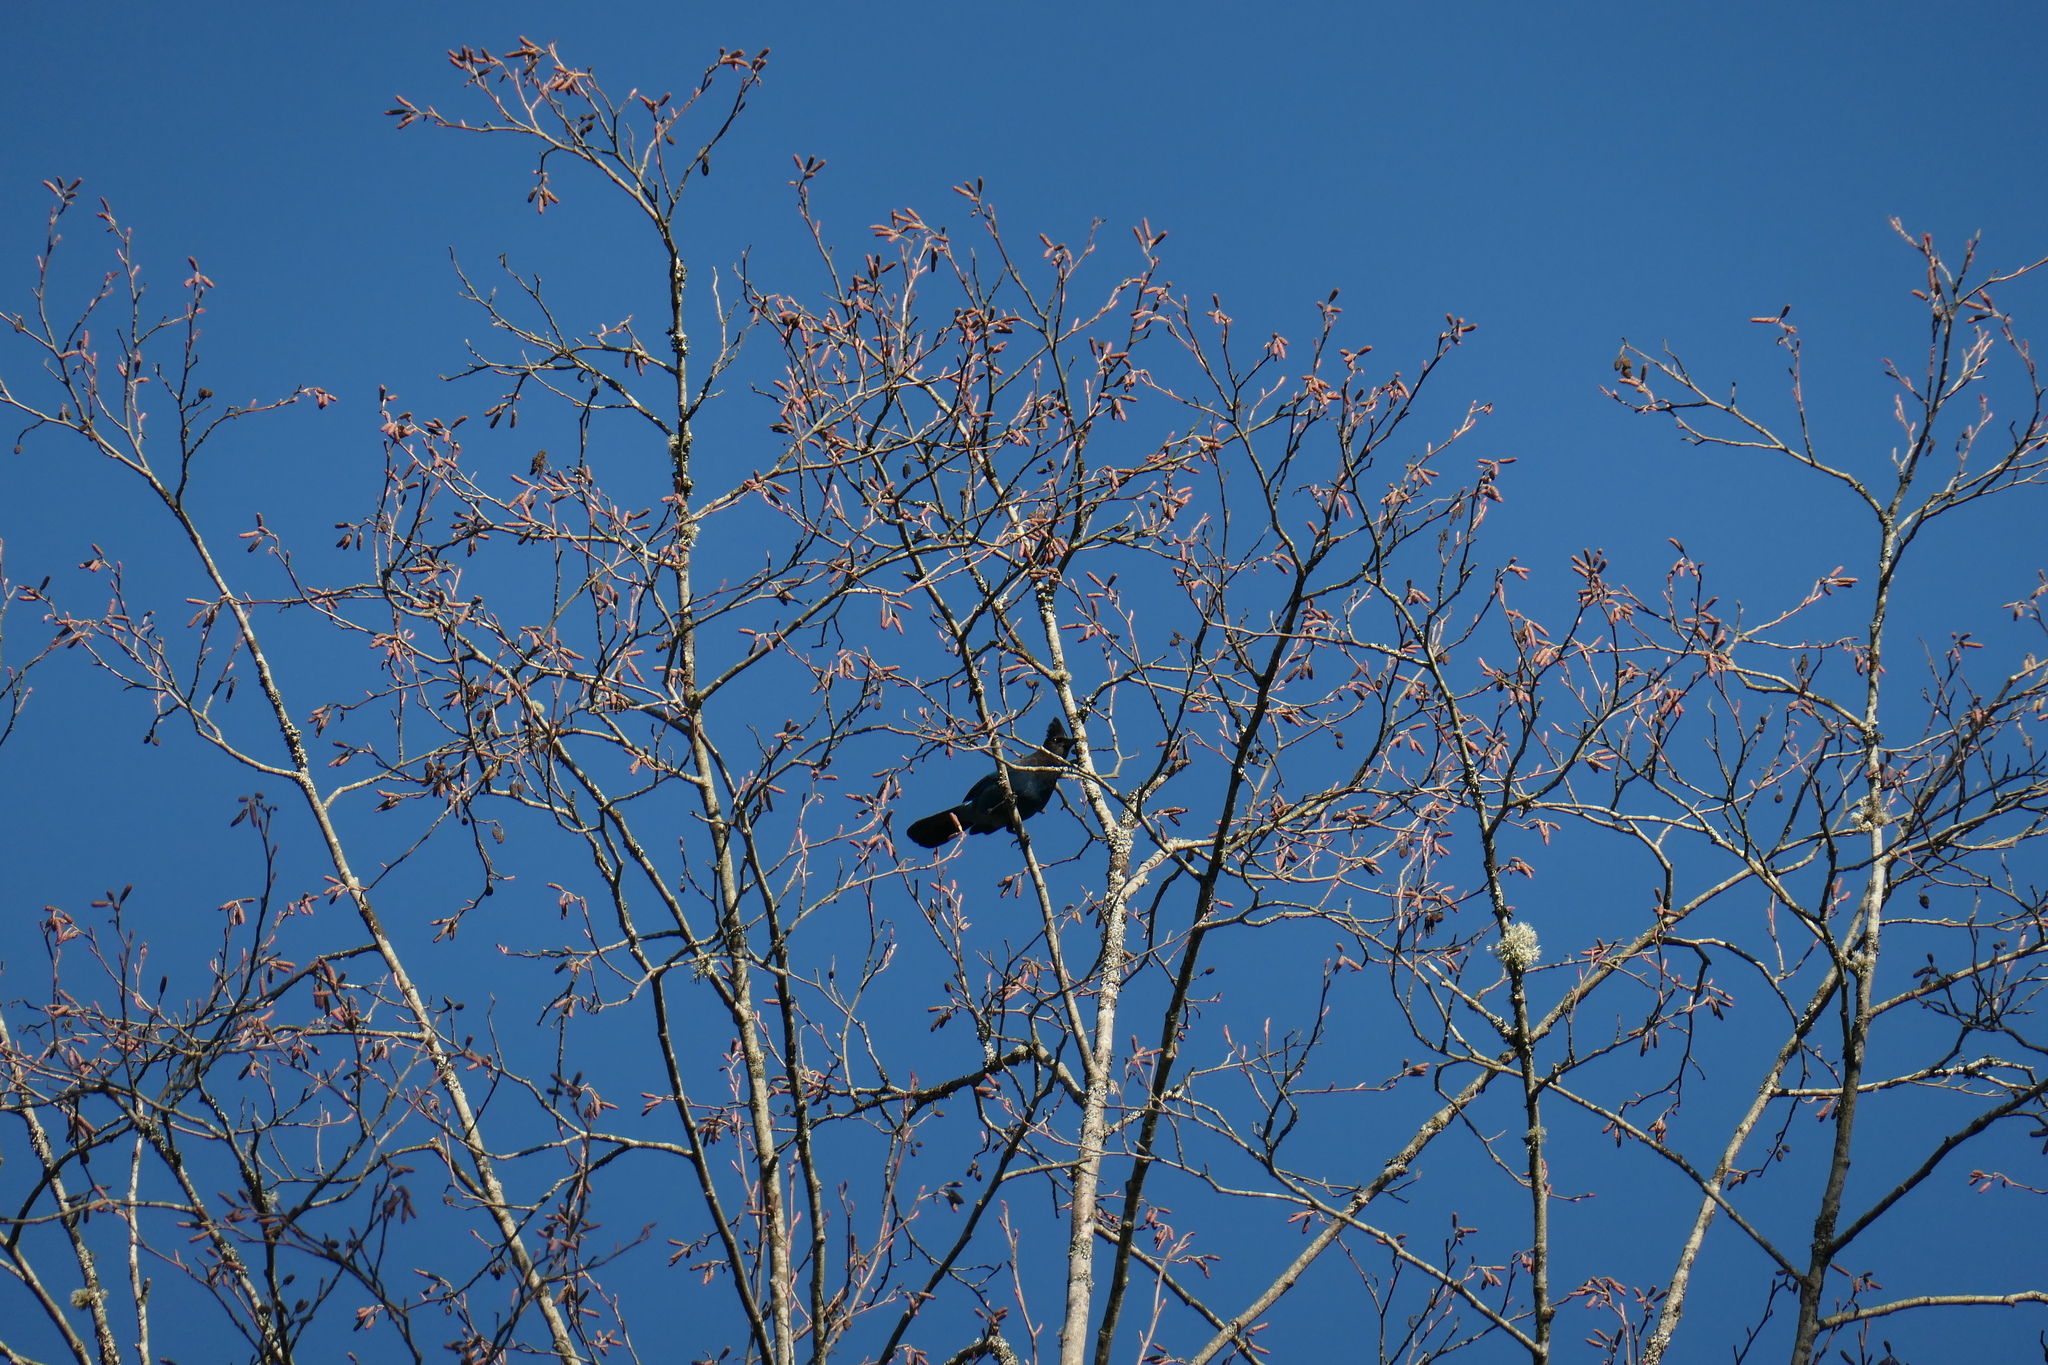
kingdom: Animalia
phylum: Chordata
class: Aves
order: Passeriformes
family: Corvidae
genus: Cyanocitta
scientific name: Cyanocitta stelleri
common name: Steller's jay
